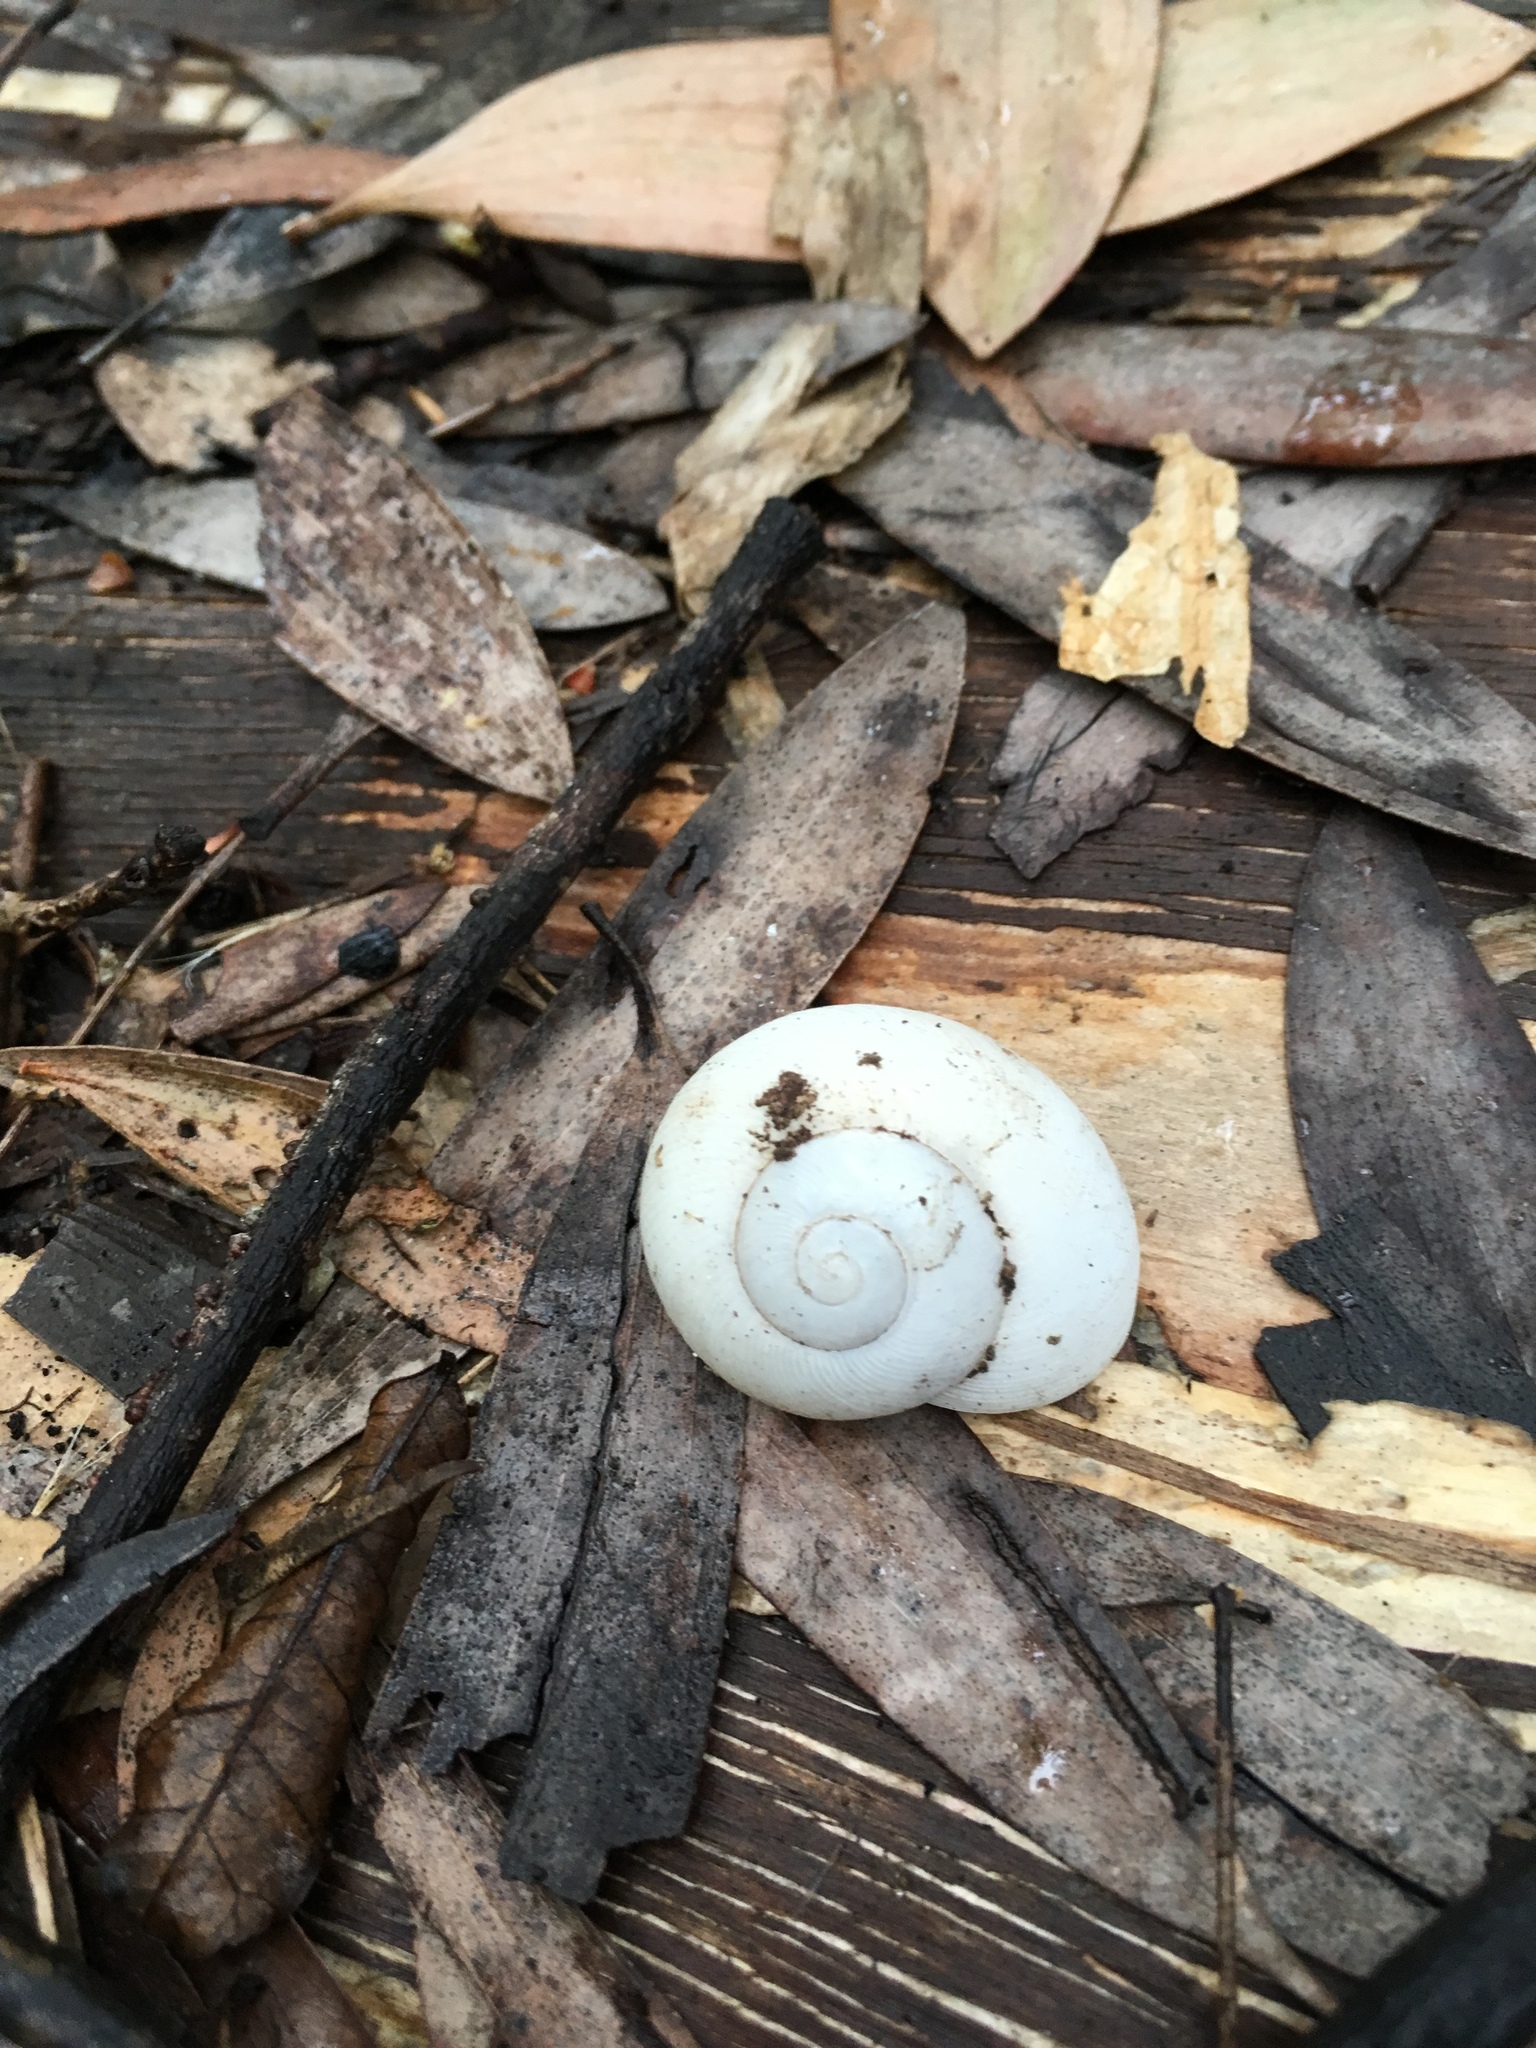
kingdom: Animalia
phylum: Mollusca
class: Gastropoda
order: Stylommatophora
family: Zachrysiidae
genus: Zachrysia
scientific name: Zachrysia provisoria
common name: Garden zachrysia
